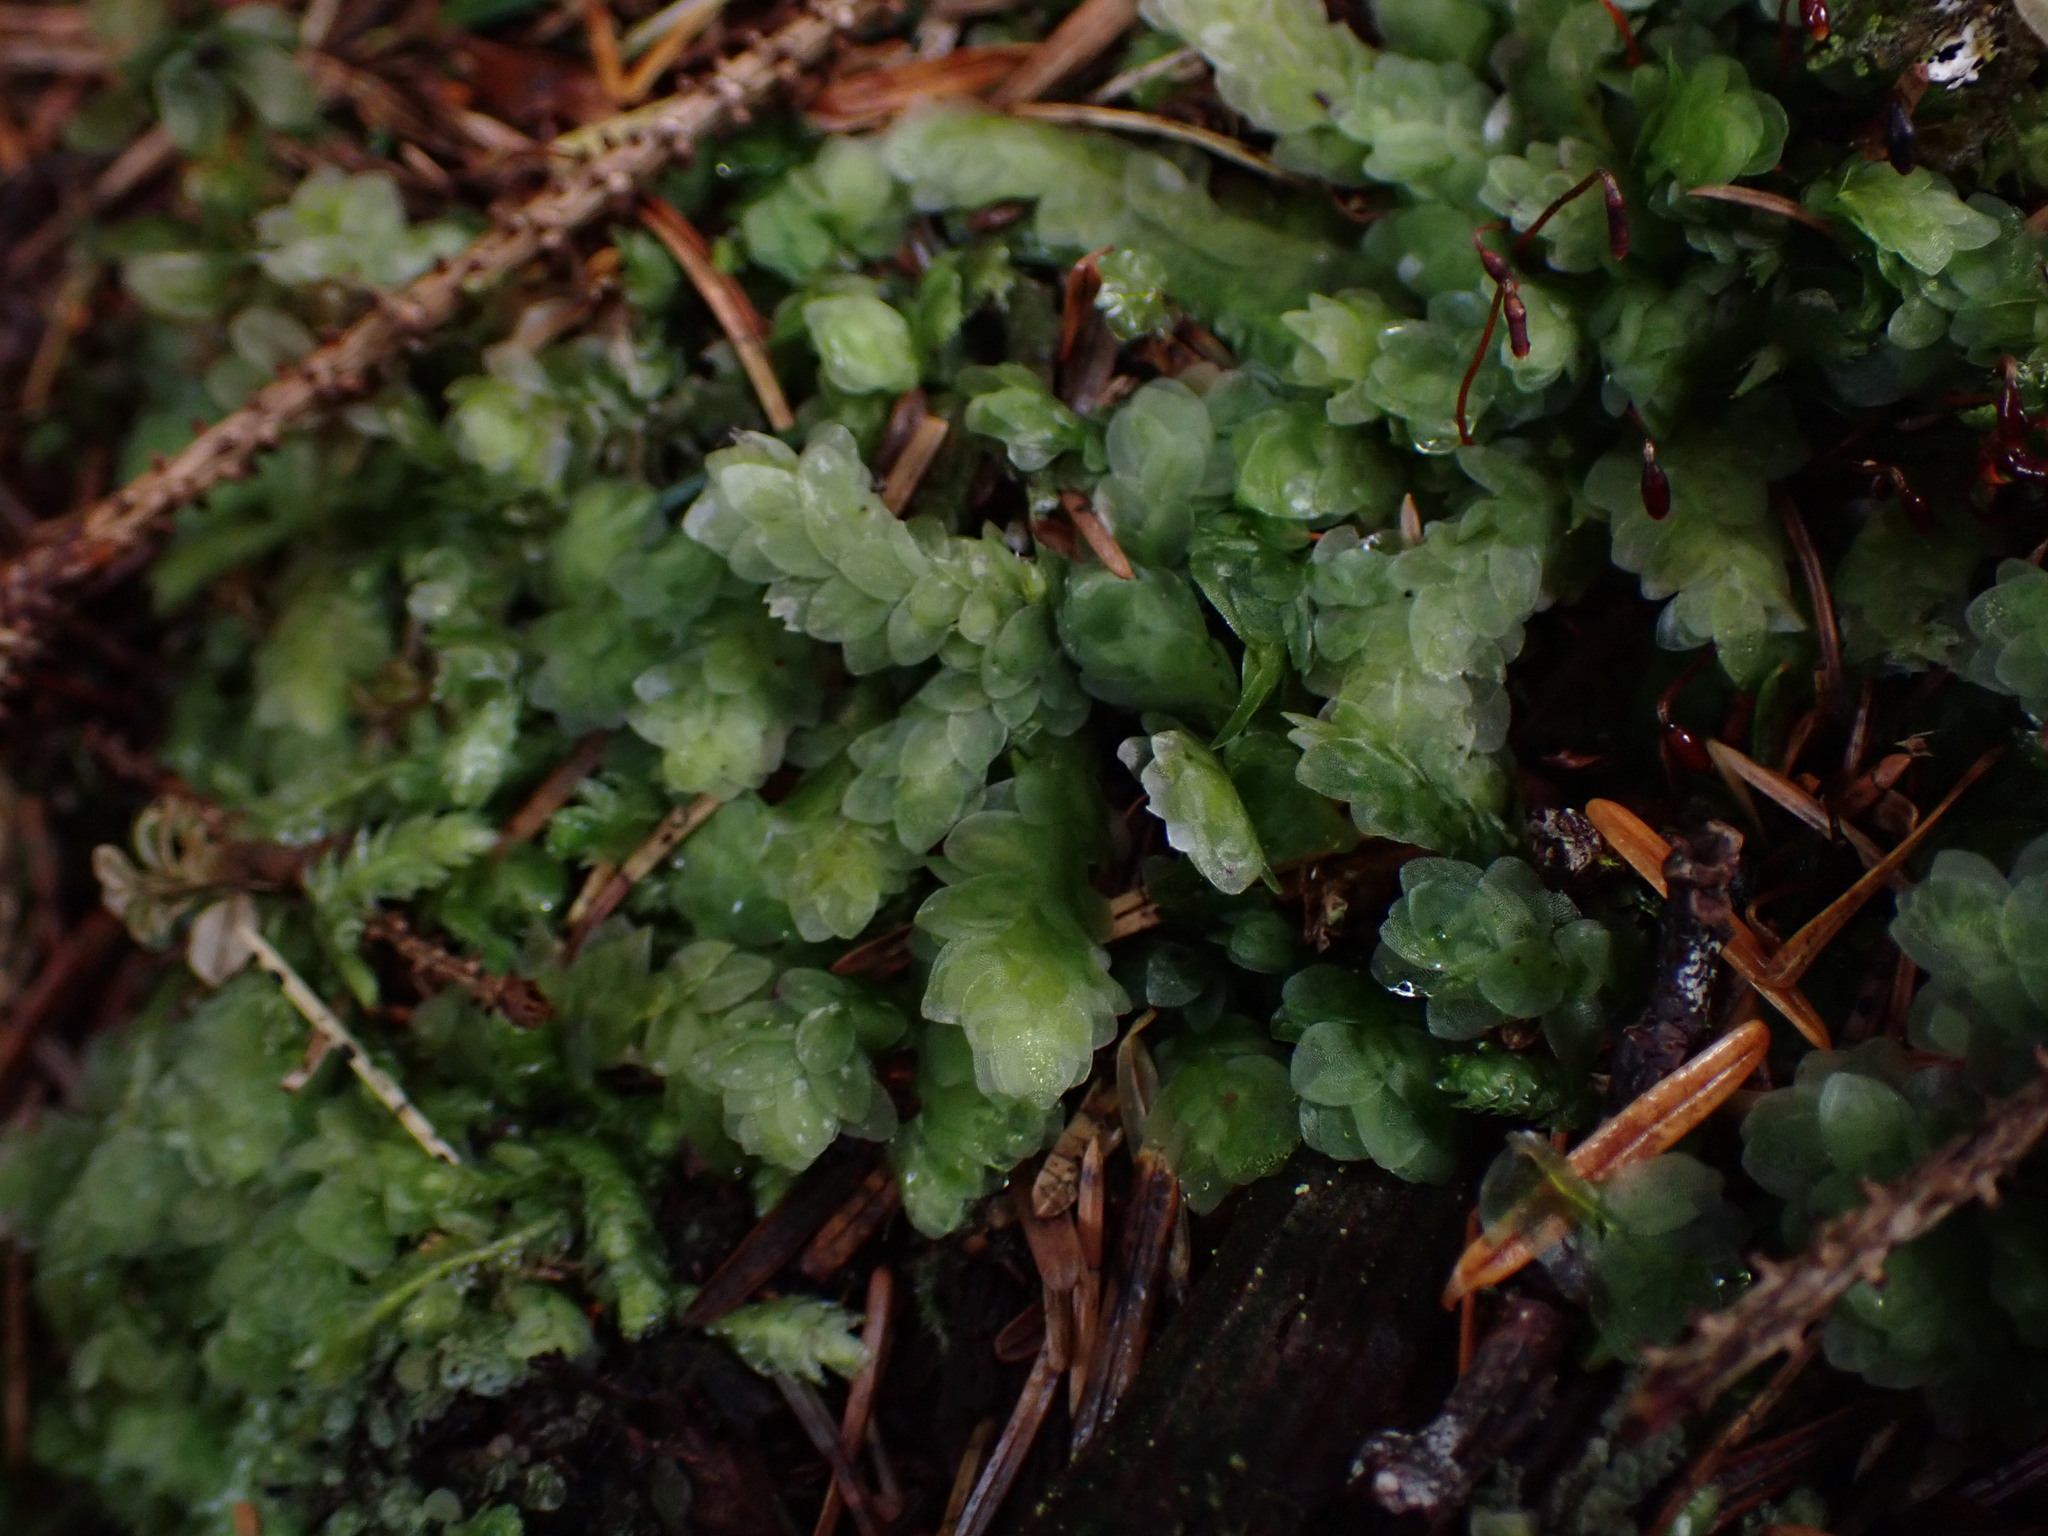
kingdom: Plantae
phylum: Bryophyta
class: Bryopsida
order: Hookeriales
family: Hookeriaceae
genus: Hookeria
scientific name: Hookeria lucens
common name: Shining hookeria
